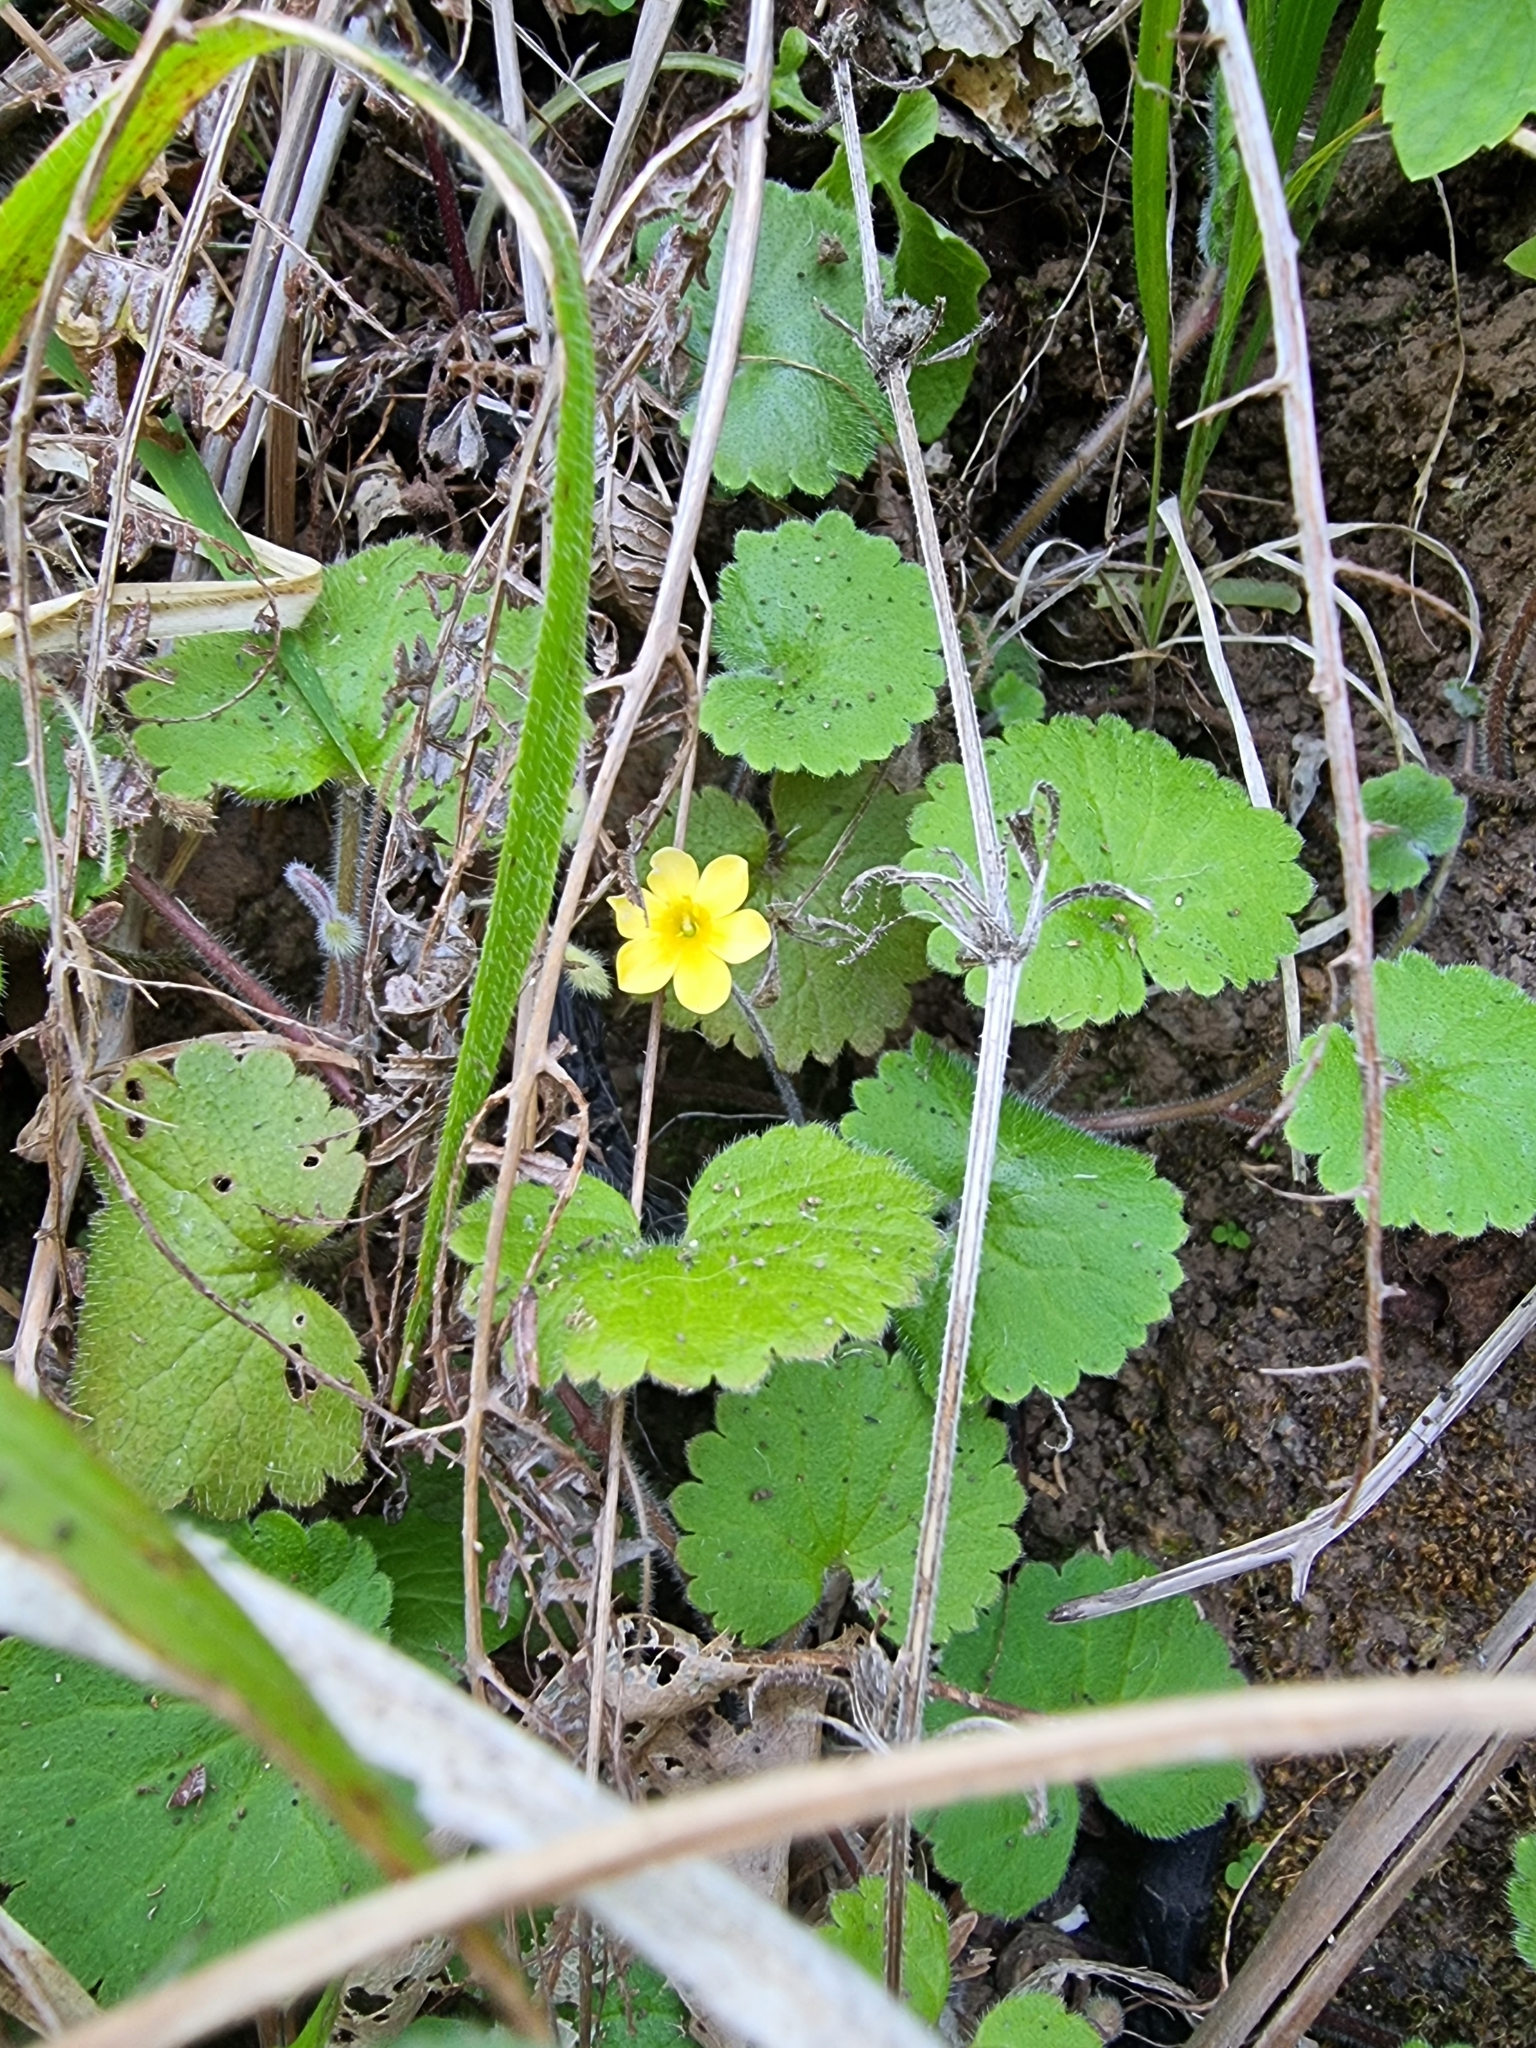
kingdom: Plantae
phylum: Tracheophyta
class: Magnoliopsida
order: Lamiales
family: Plantaginaceae
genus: Sibthorpia
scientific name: Sibthorpia peregrina
